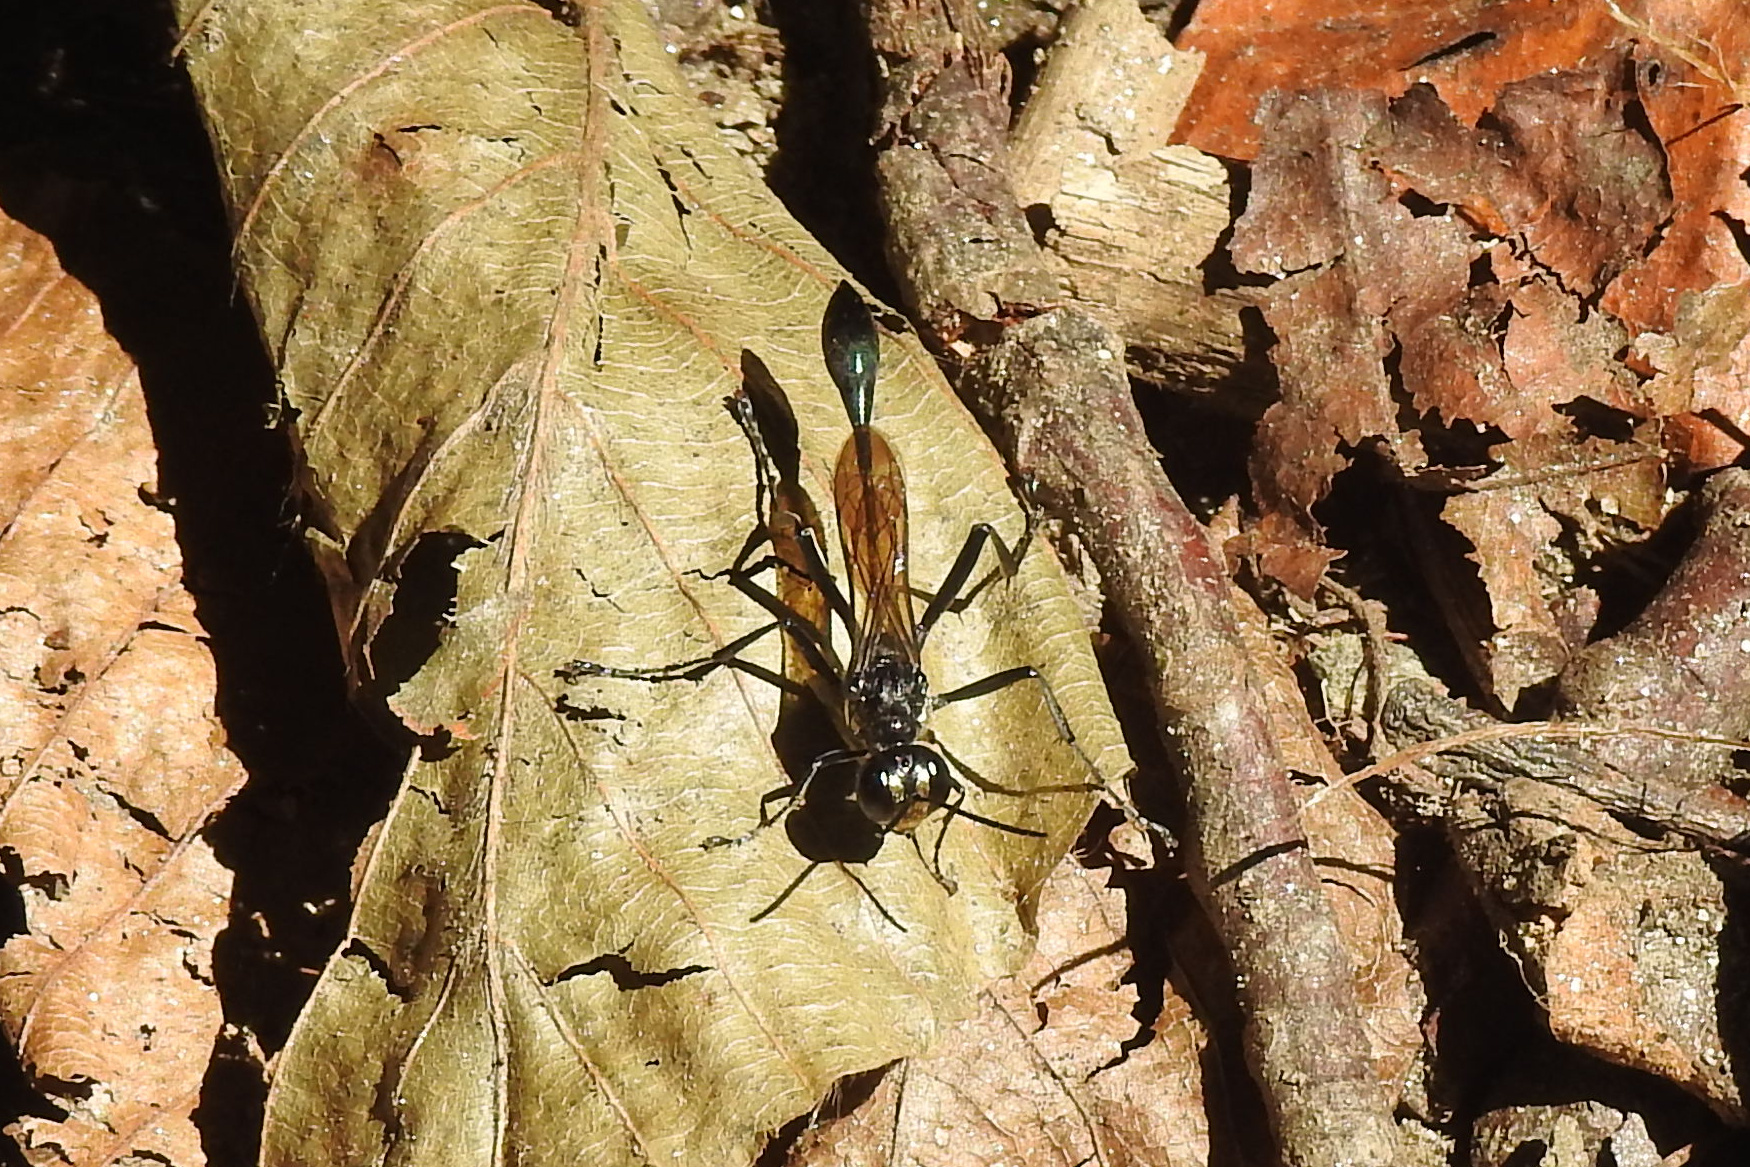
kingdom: Animalia
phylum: Arthropoda
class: Insecta
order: Hymenoptera
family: Sphecidae
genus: Eremnophila
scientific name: Eremnophila aureonotata
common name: Gold-marked thread-waisted wasp
